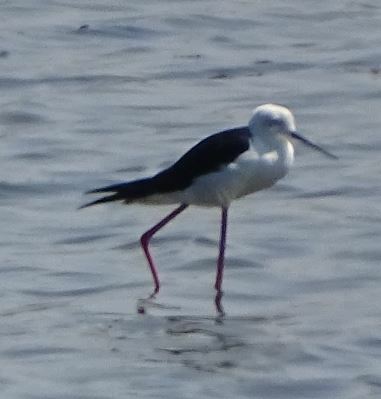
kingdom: Animalia
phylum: Chordata
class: Aves
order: Charadriiformes
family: Recurvirostridae
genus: Himantopus
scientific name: Himantopus himantopus
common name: Black-winged stilt
